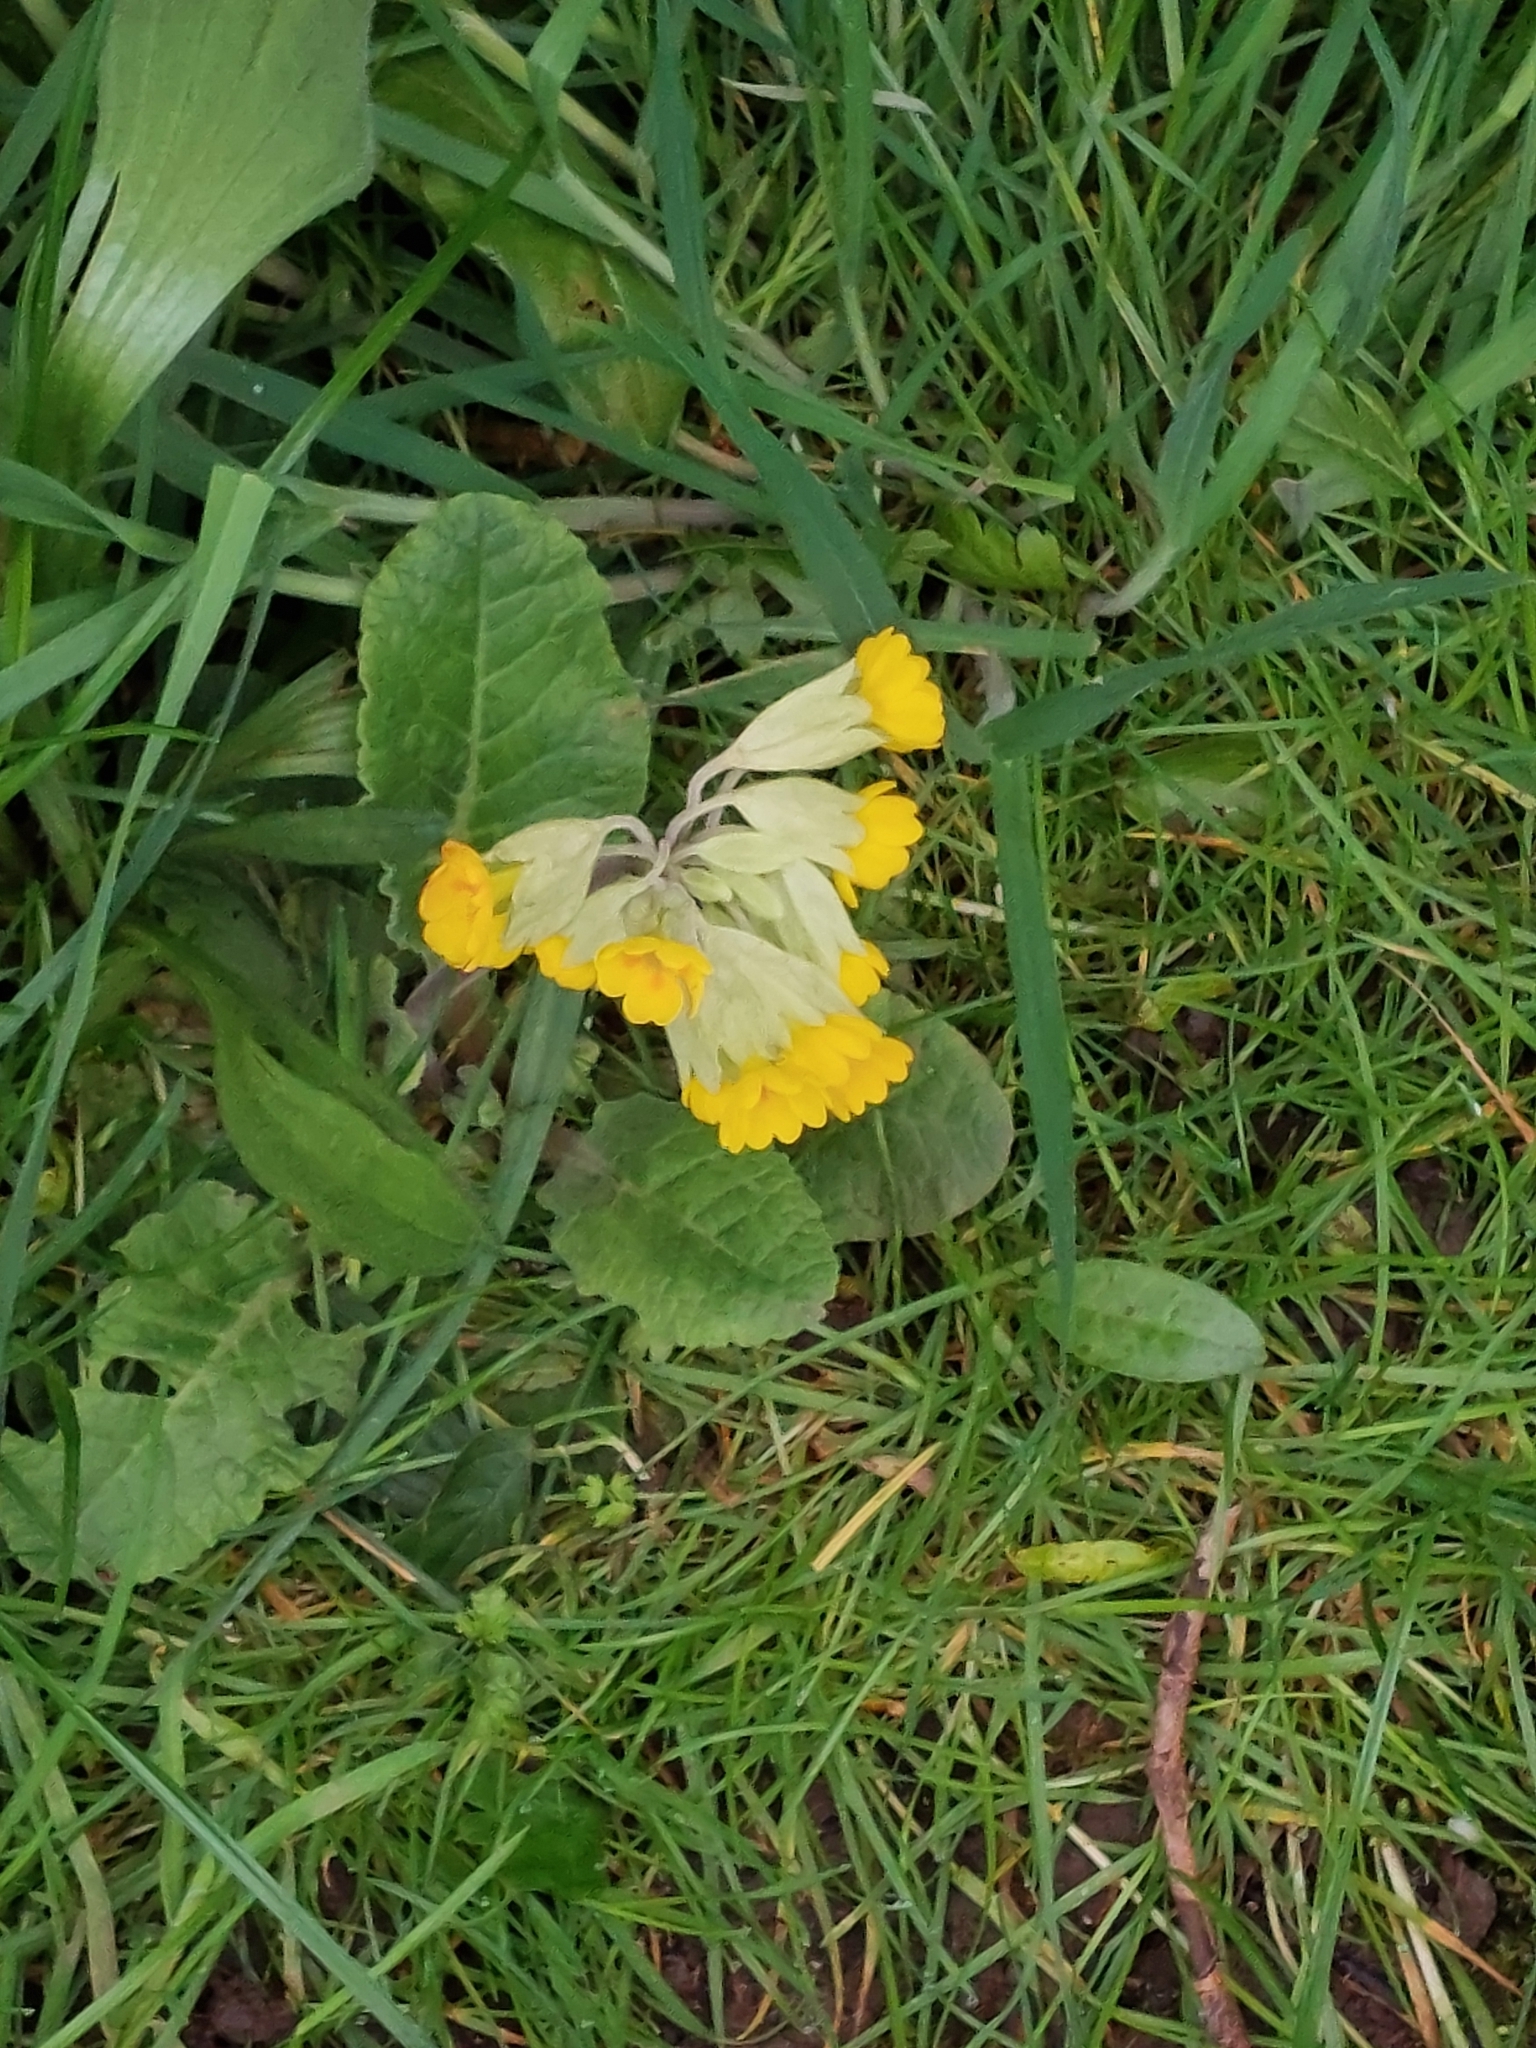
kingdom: Plantae
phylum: Tracheophyta
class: Magnoliopsida
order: Ericales
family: Primulaceae
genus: Primula
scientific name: Primula veris
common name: Cowslip
